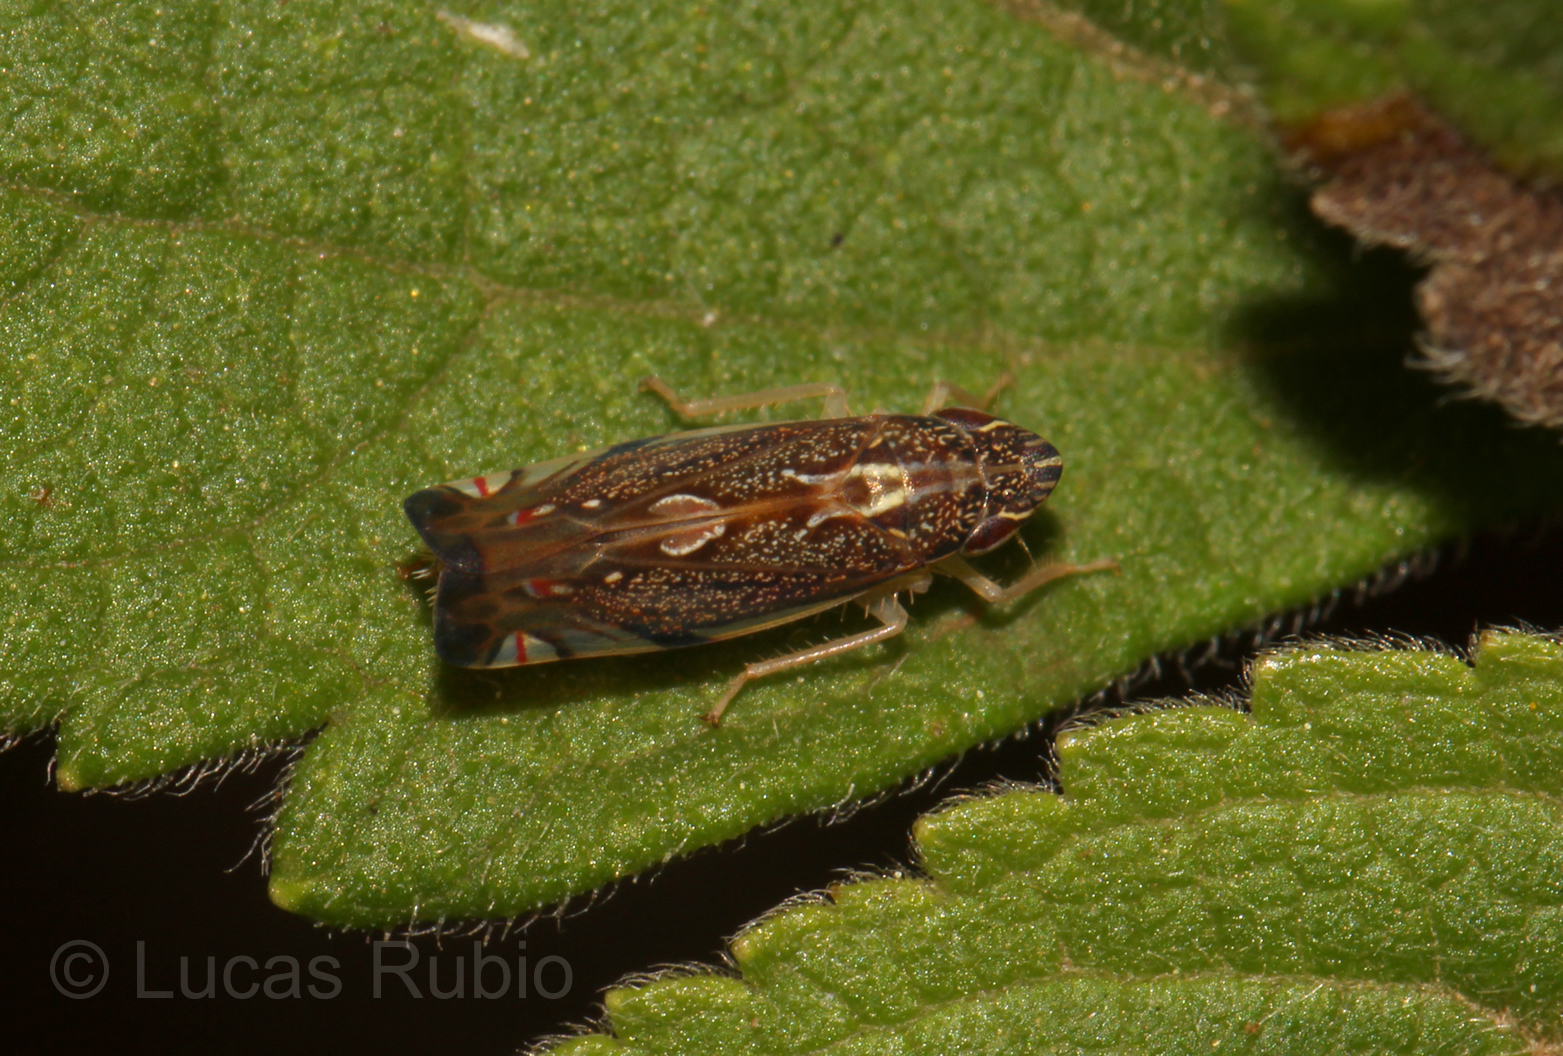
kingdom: Animalia
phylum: Arthropoda
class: Insecta
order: Hemiptera
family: Cicadellidae
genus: Diedrocephala
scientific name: Diedrocephala youngi
